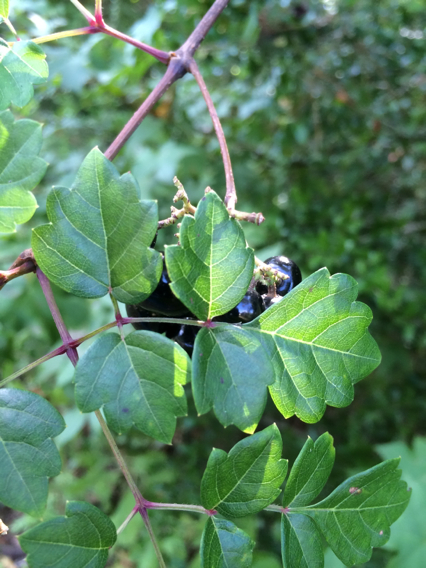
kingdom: Plantae
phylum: Tracheophyta
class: Magnoliopsida
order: Vitales
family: Vitaceae
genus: Nekemias
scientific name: Nekemias arborea
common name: Peppervine
